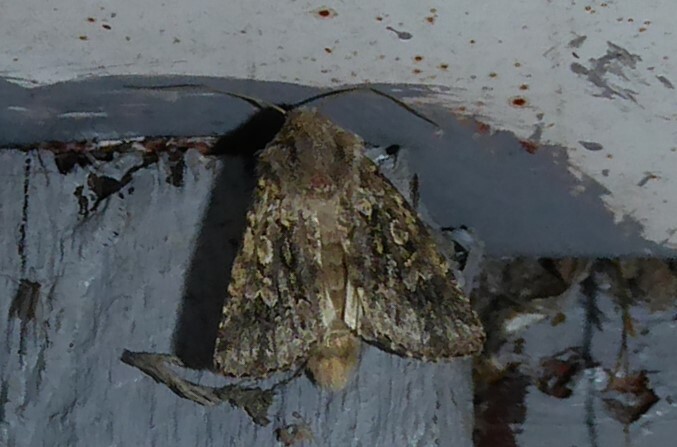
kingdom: Animalia
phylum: Arthropoda
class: Insecta
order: Lepidoptera
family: Noctuidae
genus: Ectopatria
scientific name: Ectopatria aspera
